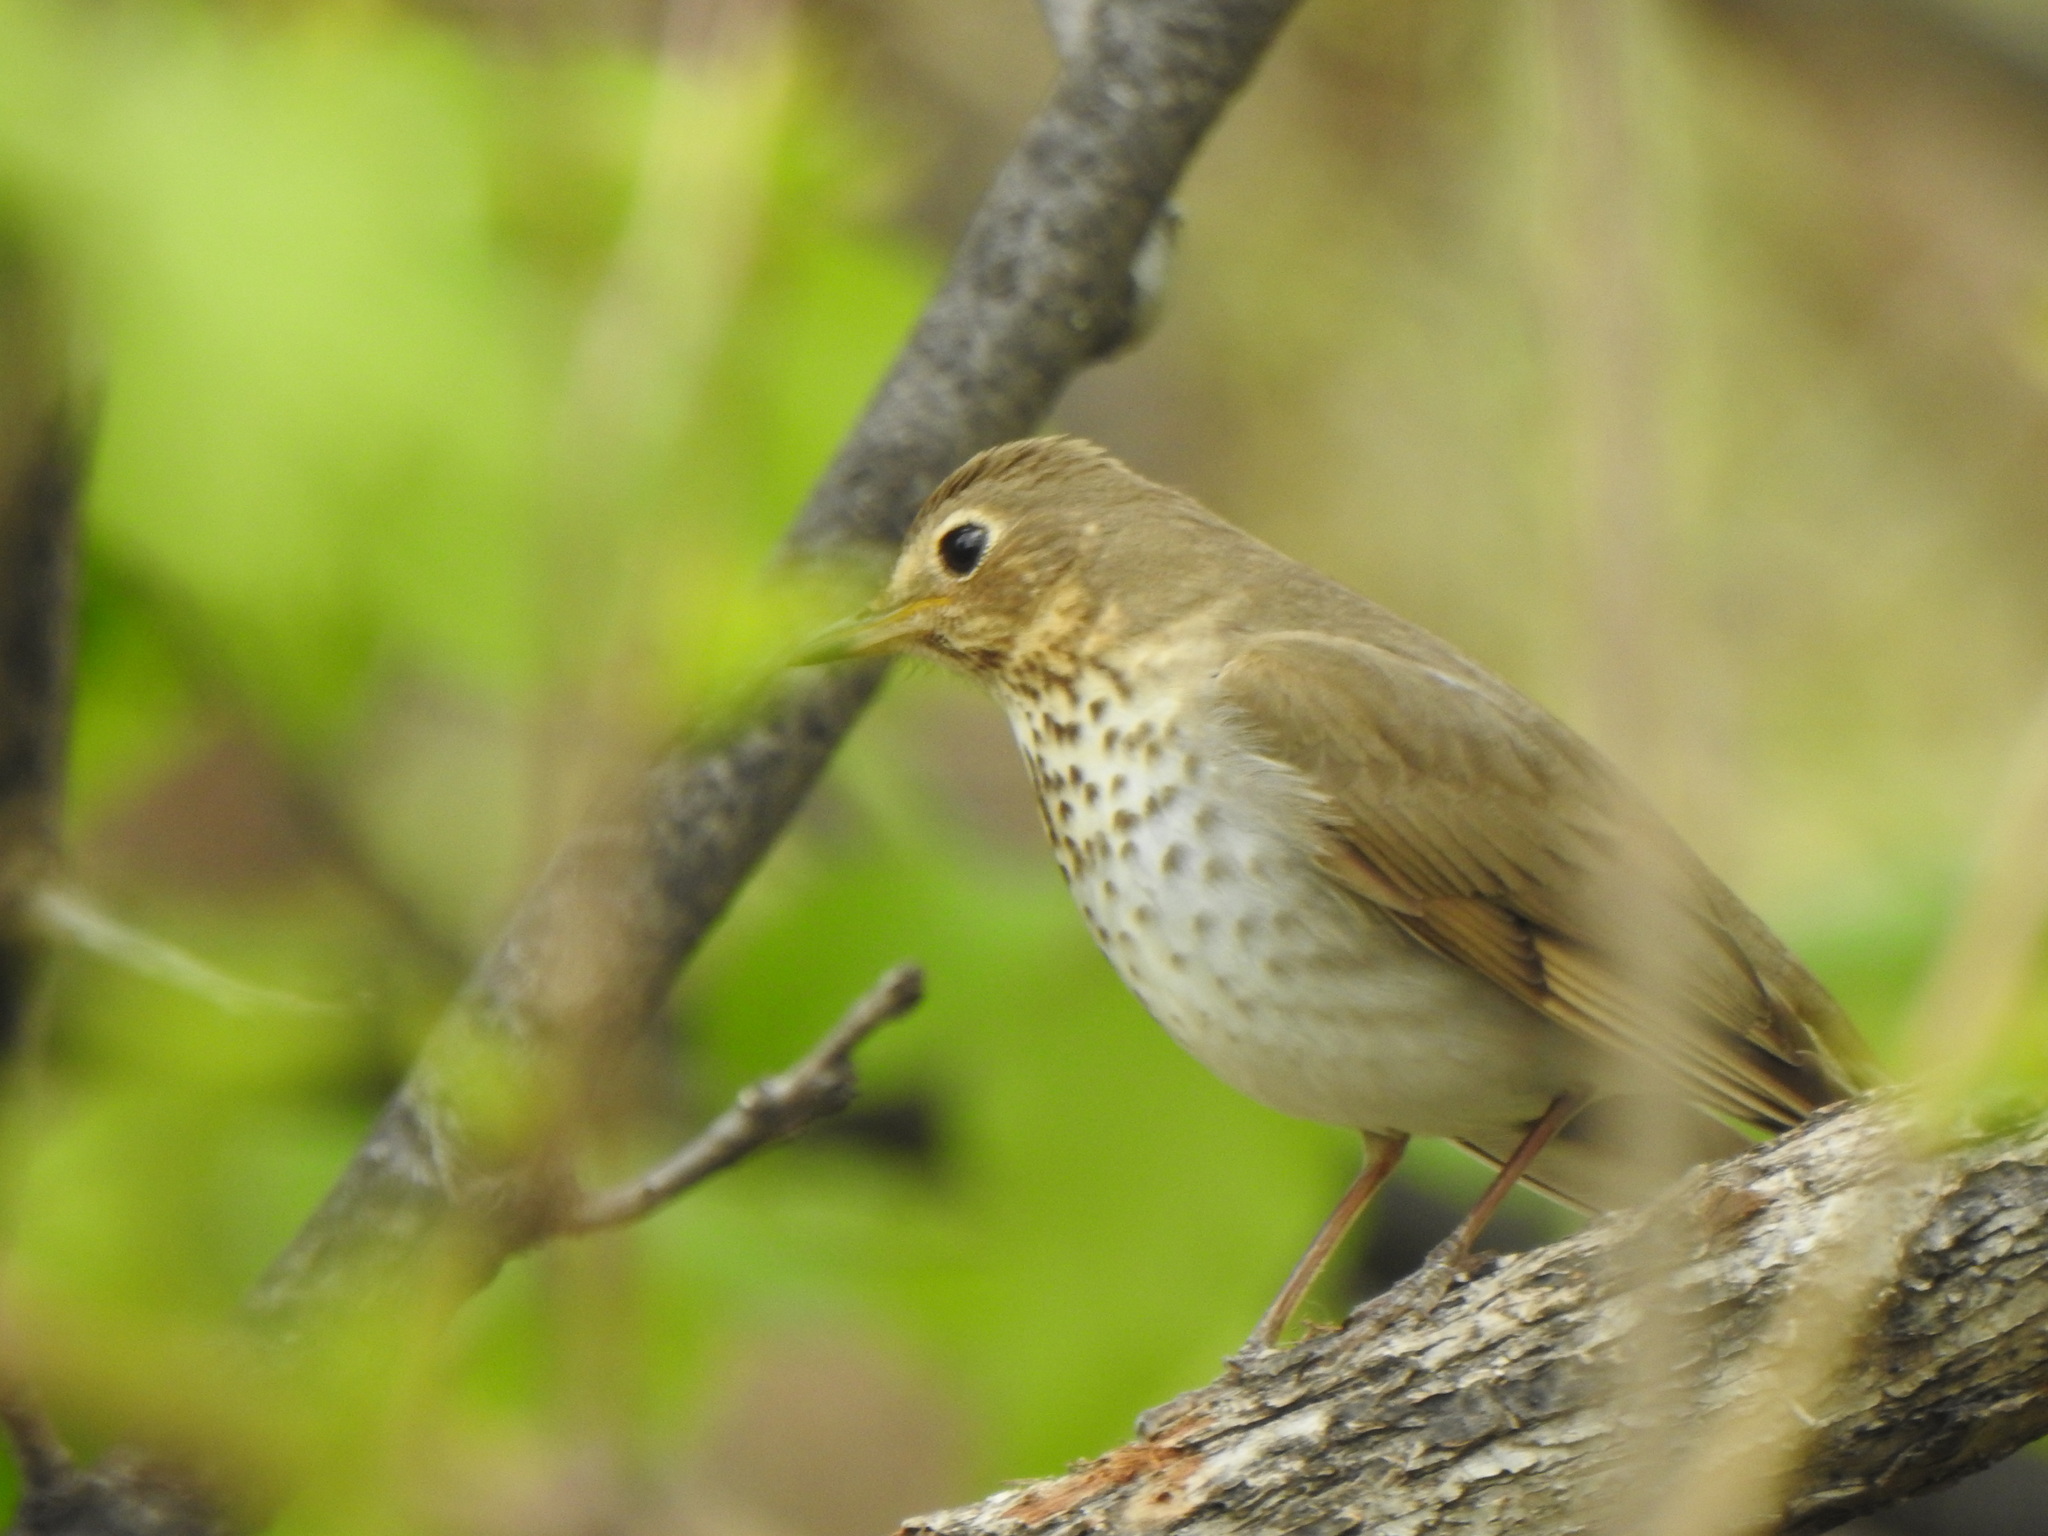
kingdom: Animalia
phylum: Chordata
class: Aves
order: Passeriformes
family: Turdidae
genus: Catharus
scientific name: Catharus ustulatus
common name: Swainson's thrush
